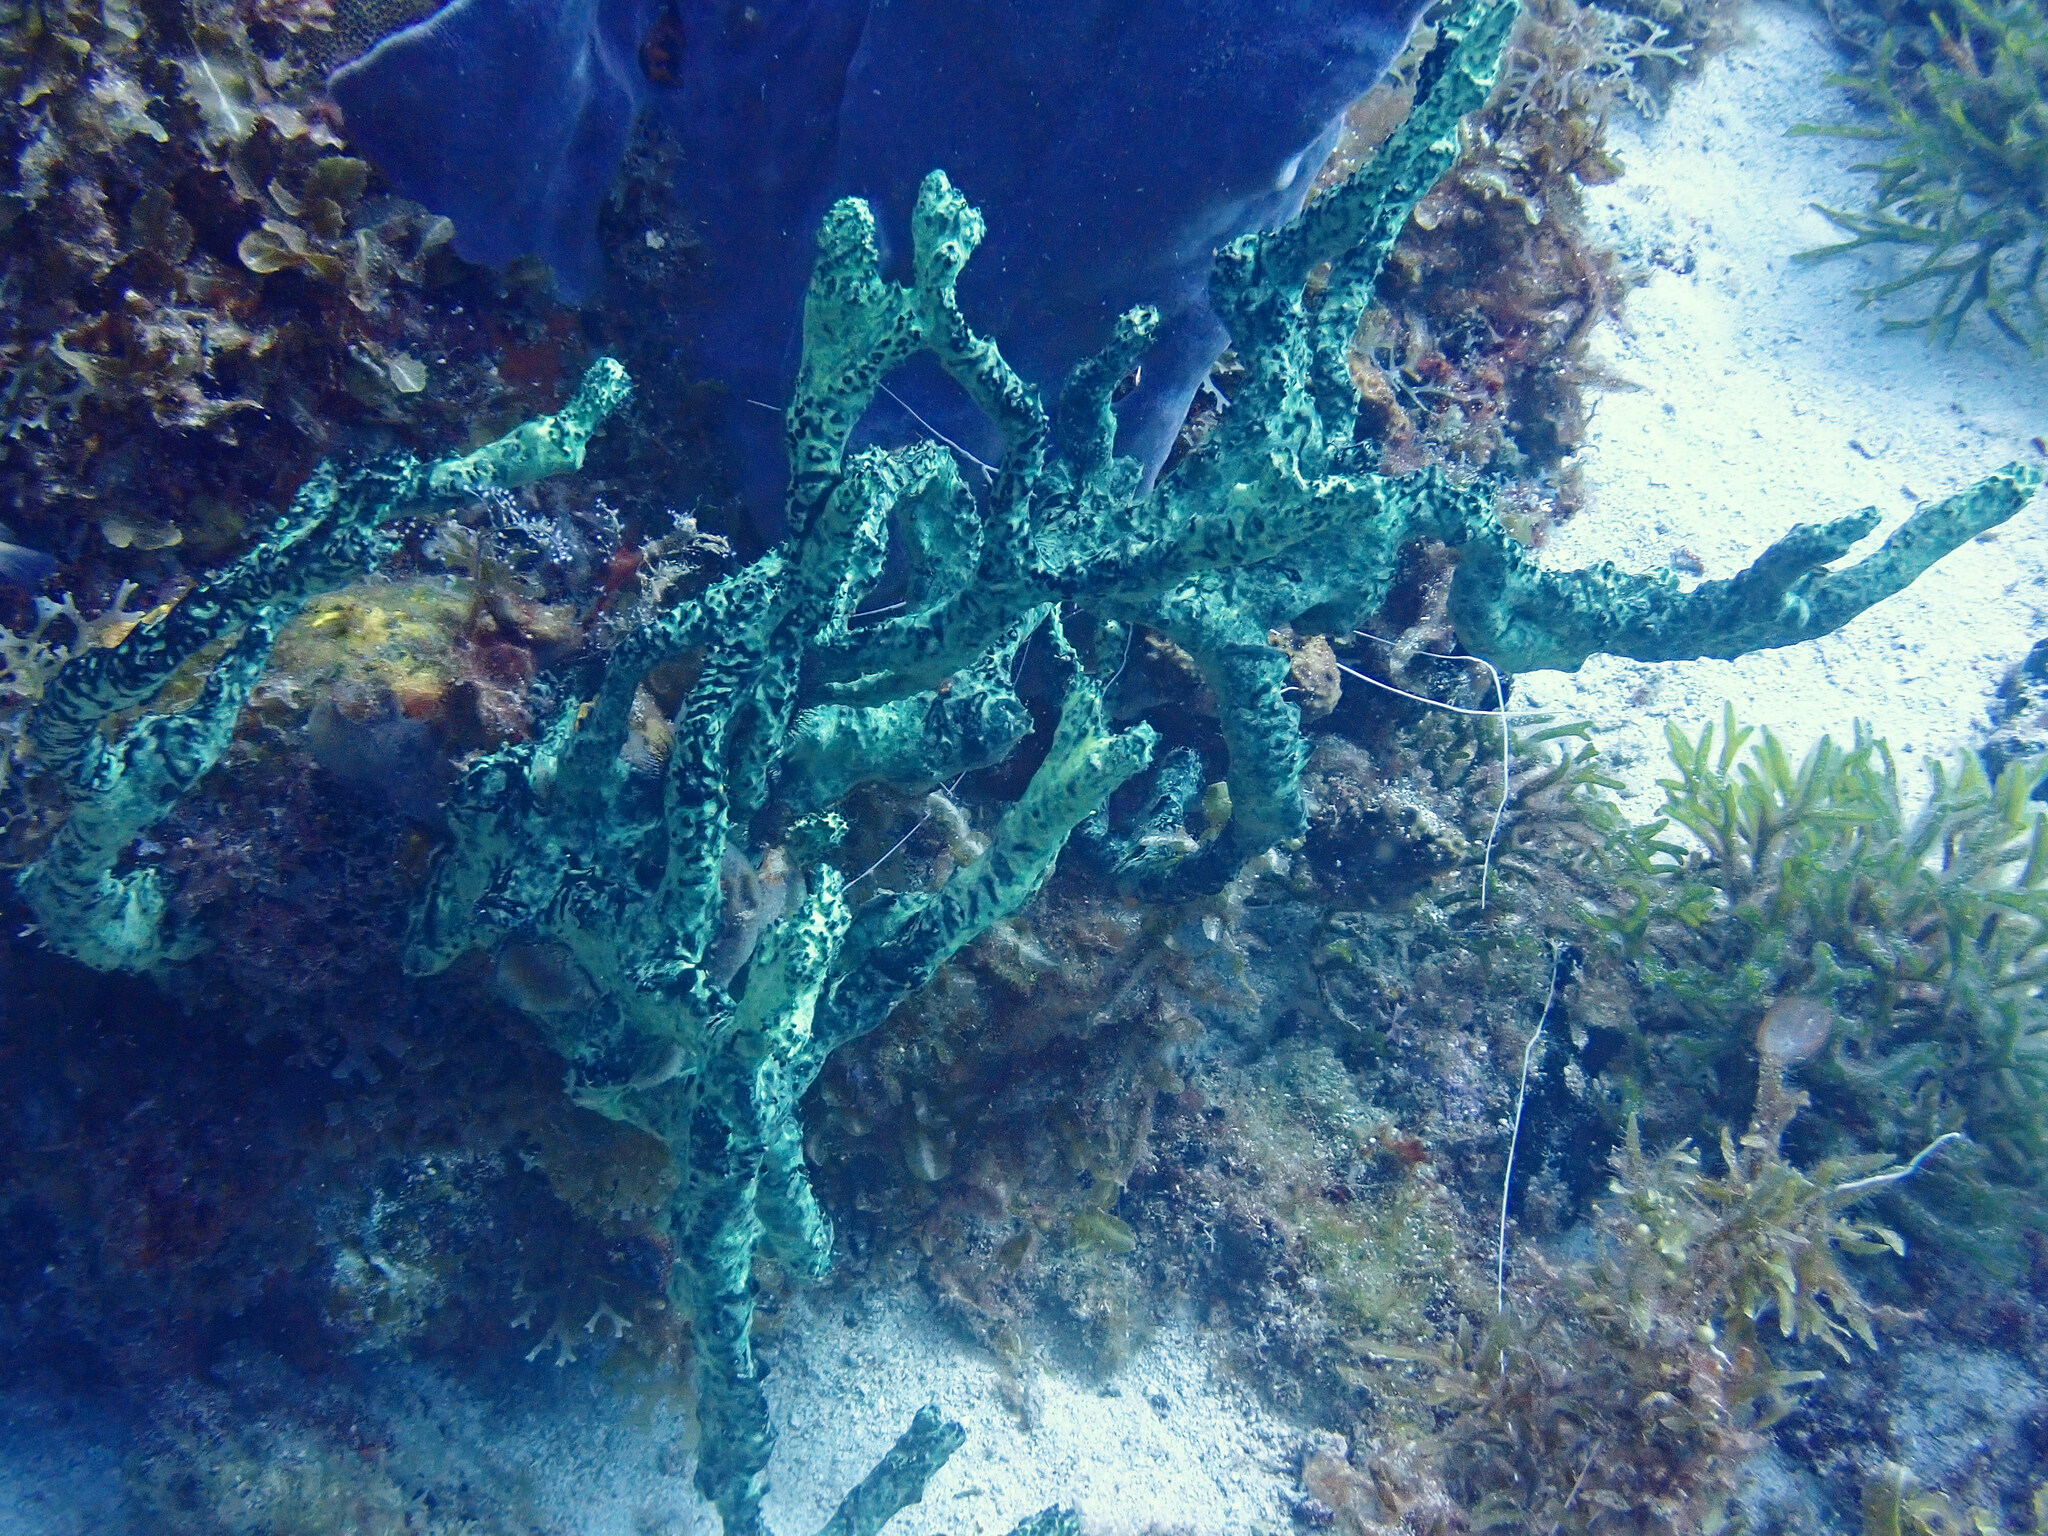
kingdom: Animalia
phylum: Porifera
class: Demospongiae
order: Poecilosclerida
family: Iotrochotidae
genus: Iotrochota
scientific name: Iotrochota birotulata
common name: Purple bleeding sponge
